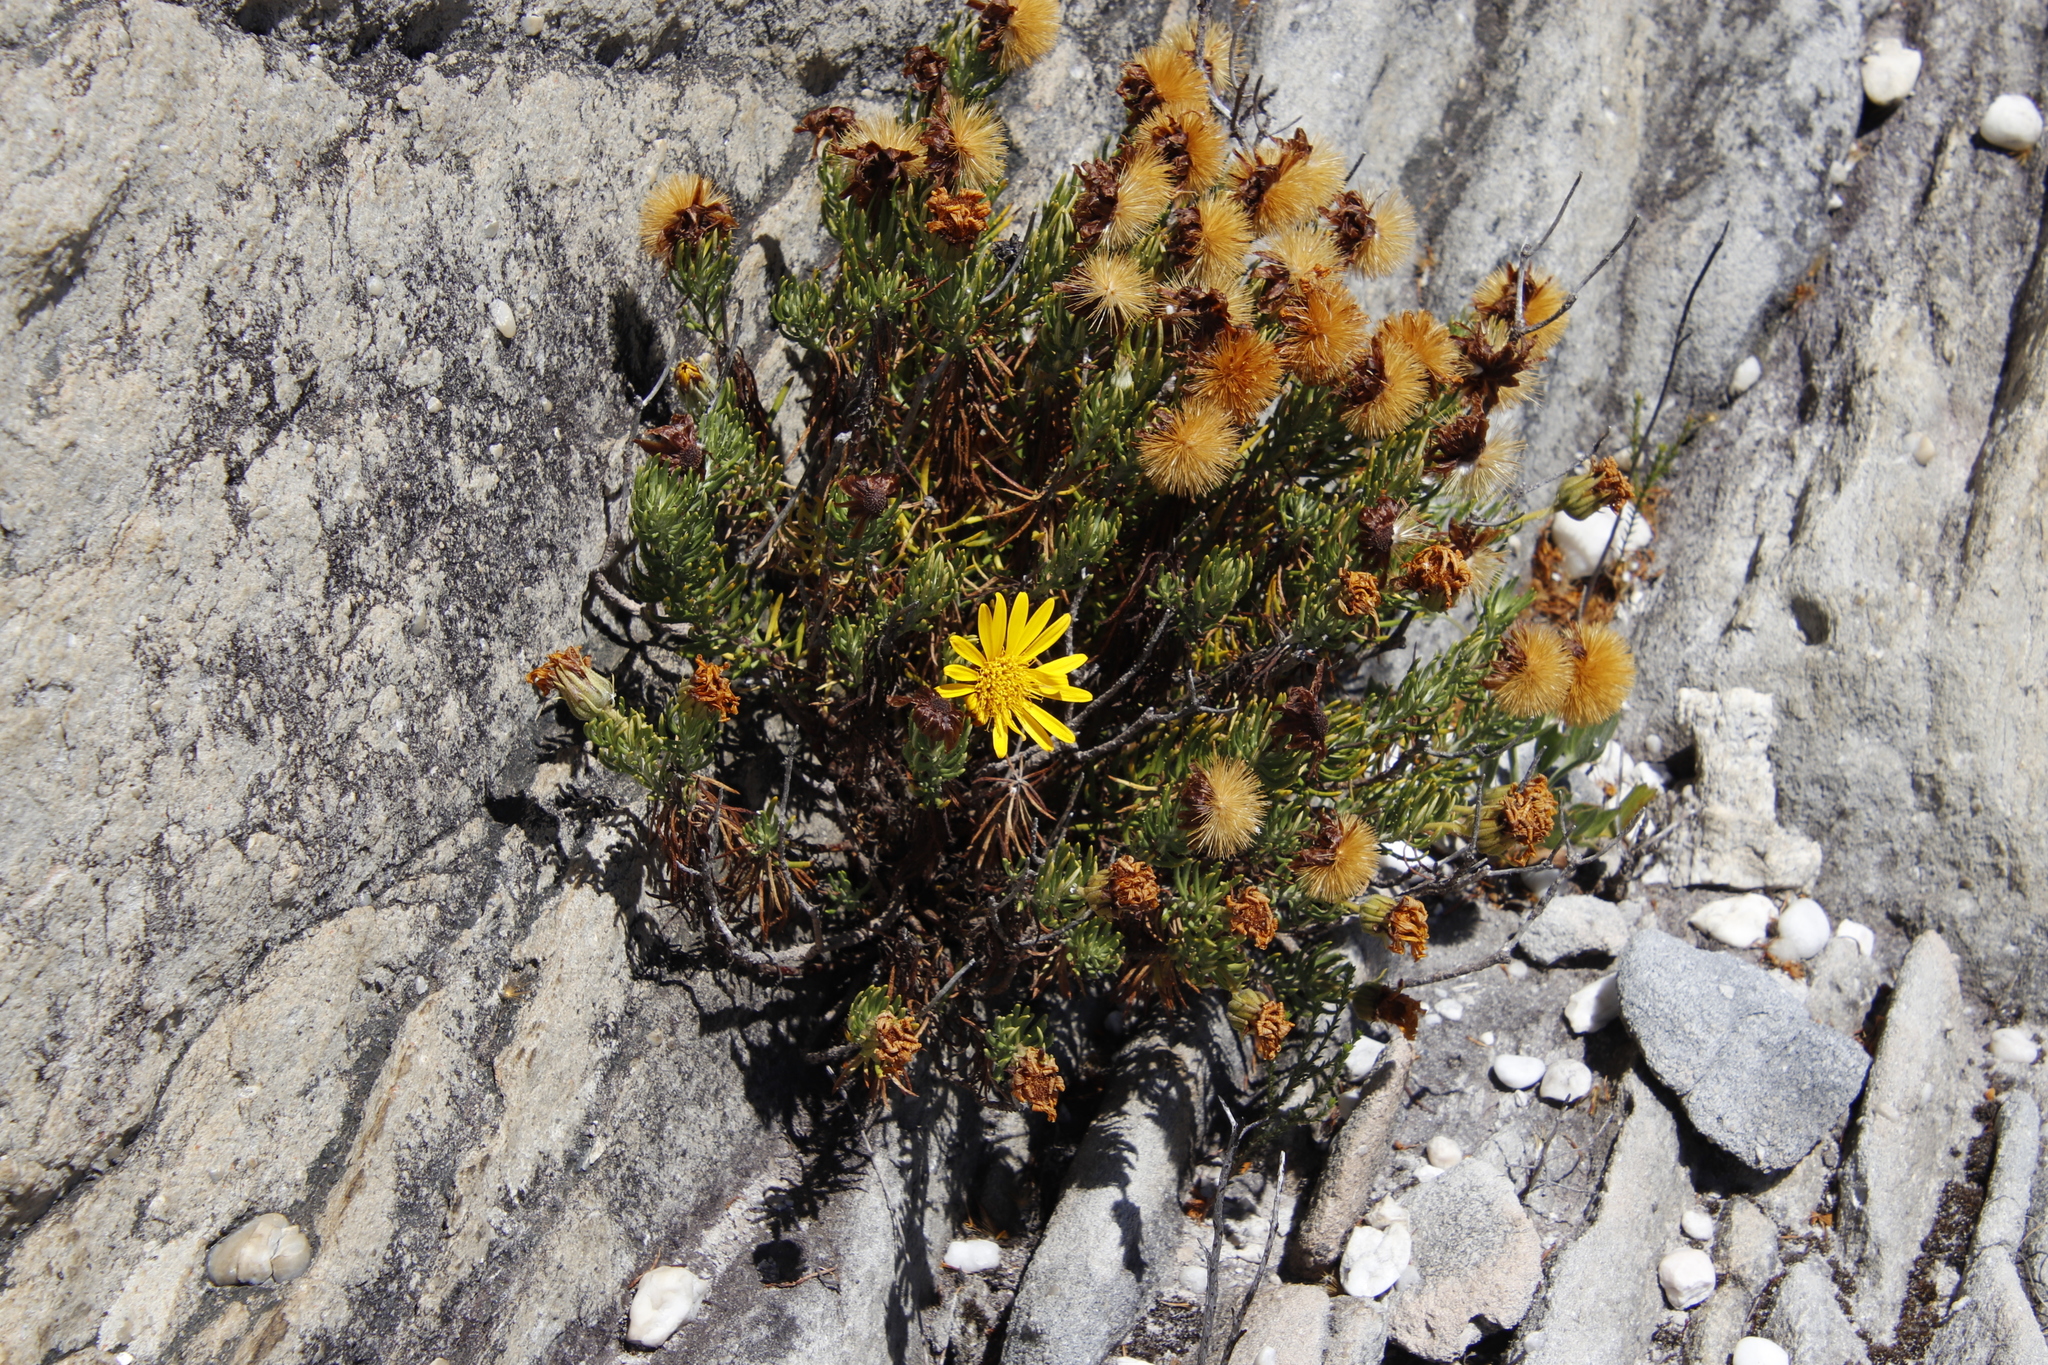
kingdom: Plantae
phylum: Tracheophyta
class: Magnoliopsida
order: Asterales
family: Asteraceae
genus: Heterolepis
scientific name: Heterolepis aliena
